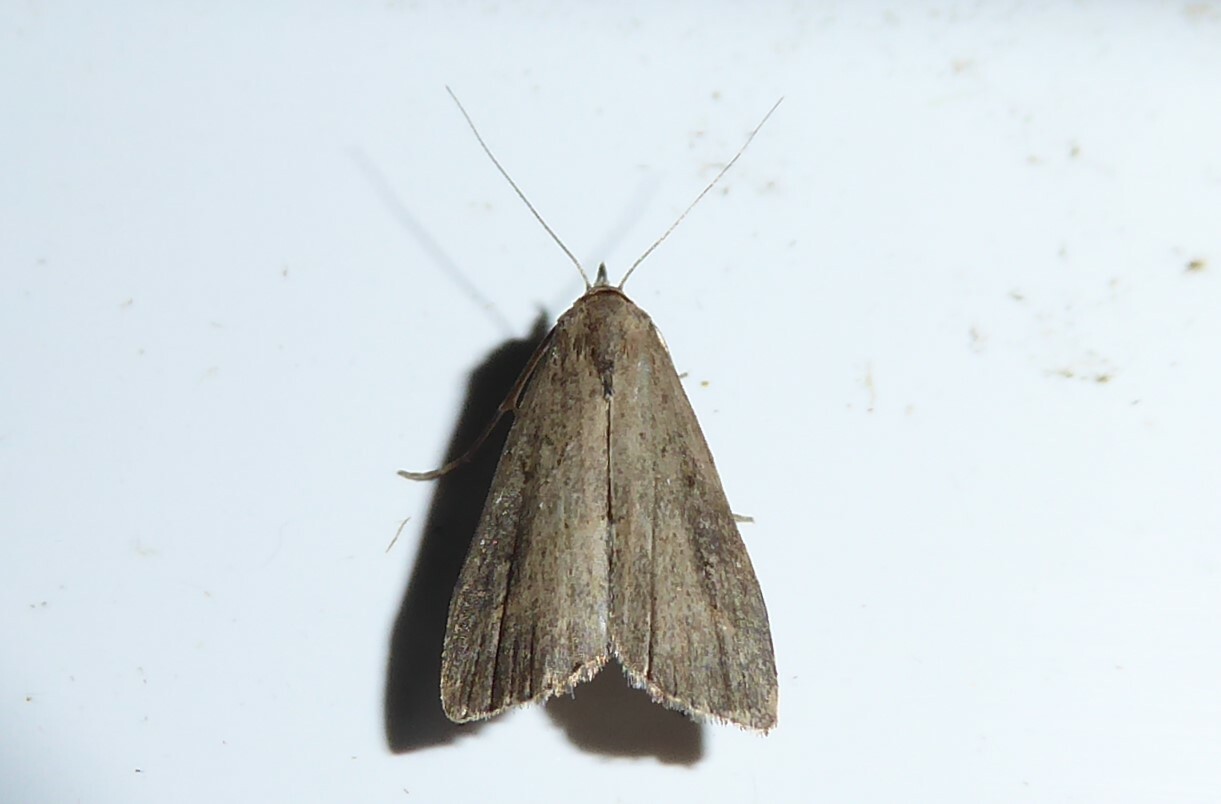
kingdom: Animalia
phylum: Arthropoda
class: Insecta
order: Lepidoptera
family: Erebidae
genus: Schrankia
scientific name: Schrankia costaestrigalis
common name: Pinion-streaked snout
